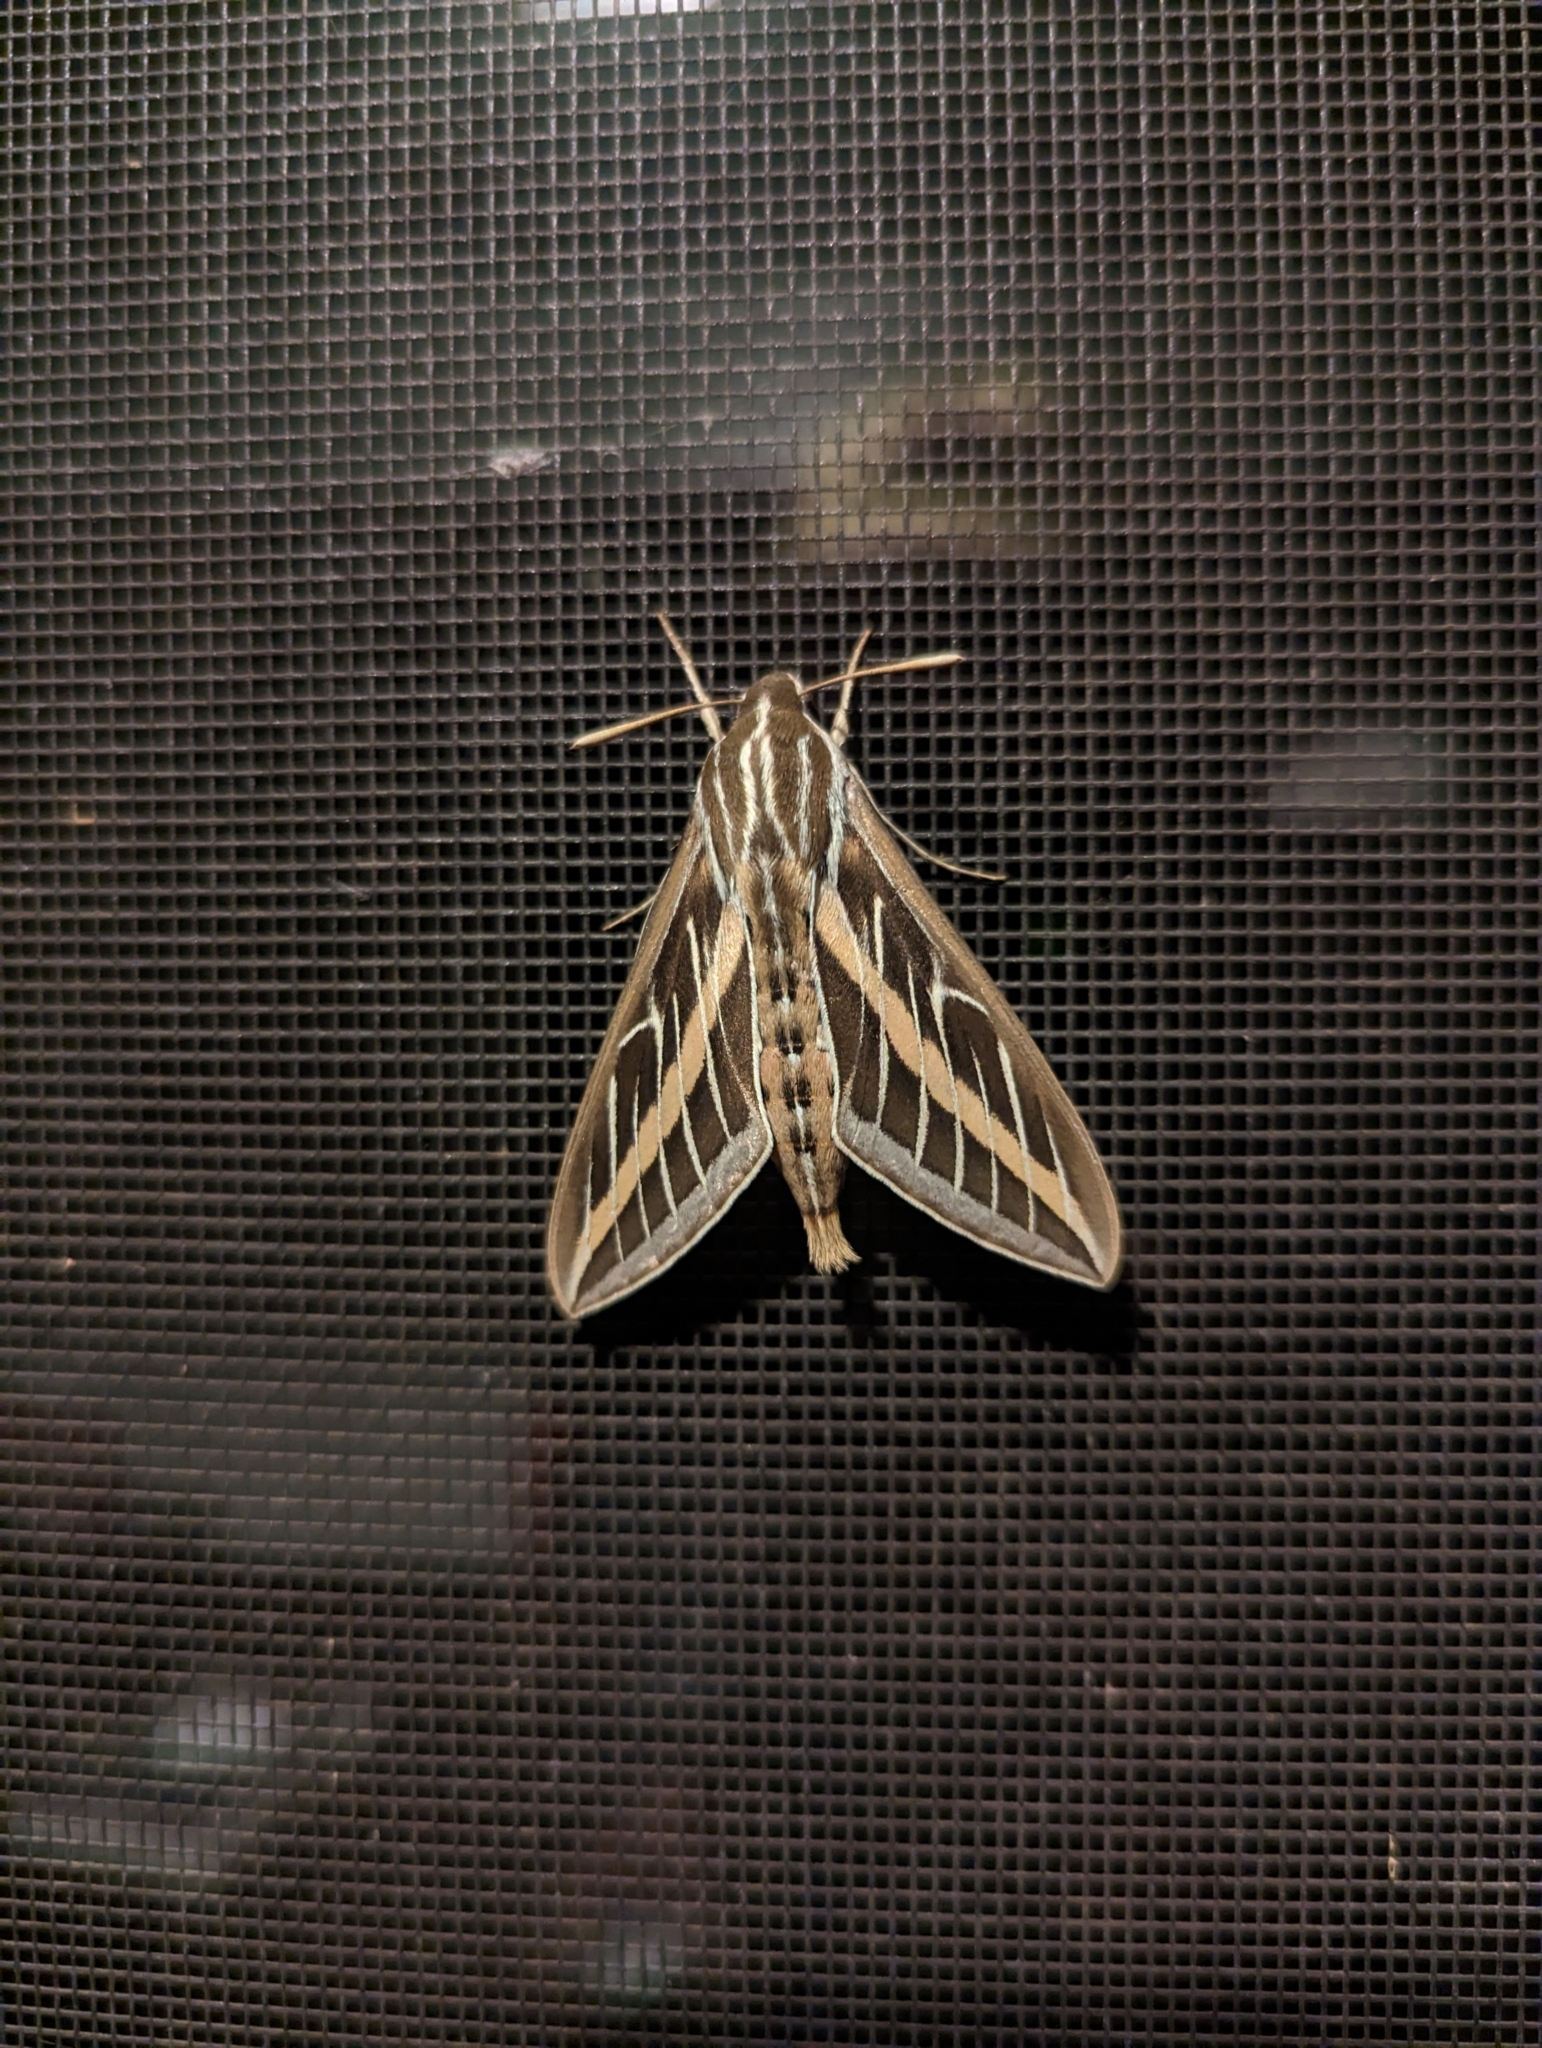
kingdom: Animalia
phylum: Arthropoda
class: Insecta
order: Lepidoptera
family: Sphingidae
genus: Hyles
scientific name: Hyles lineata
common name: White-lined sphinx
